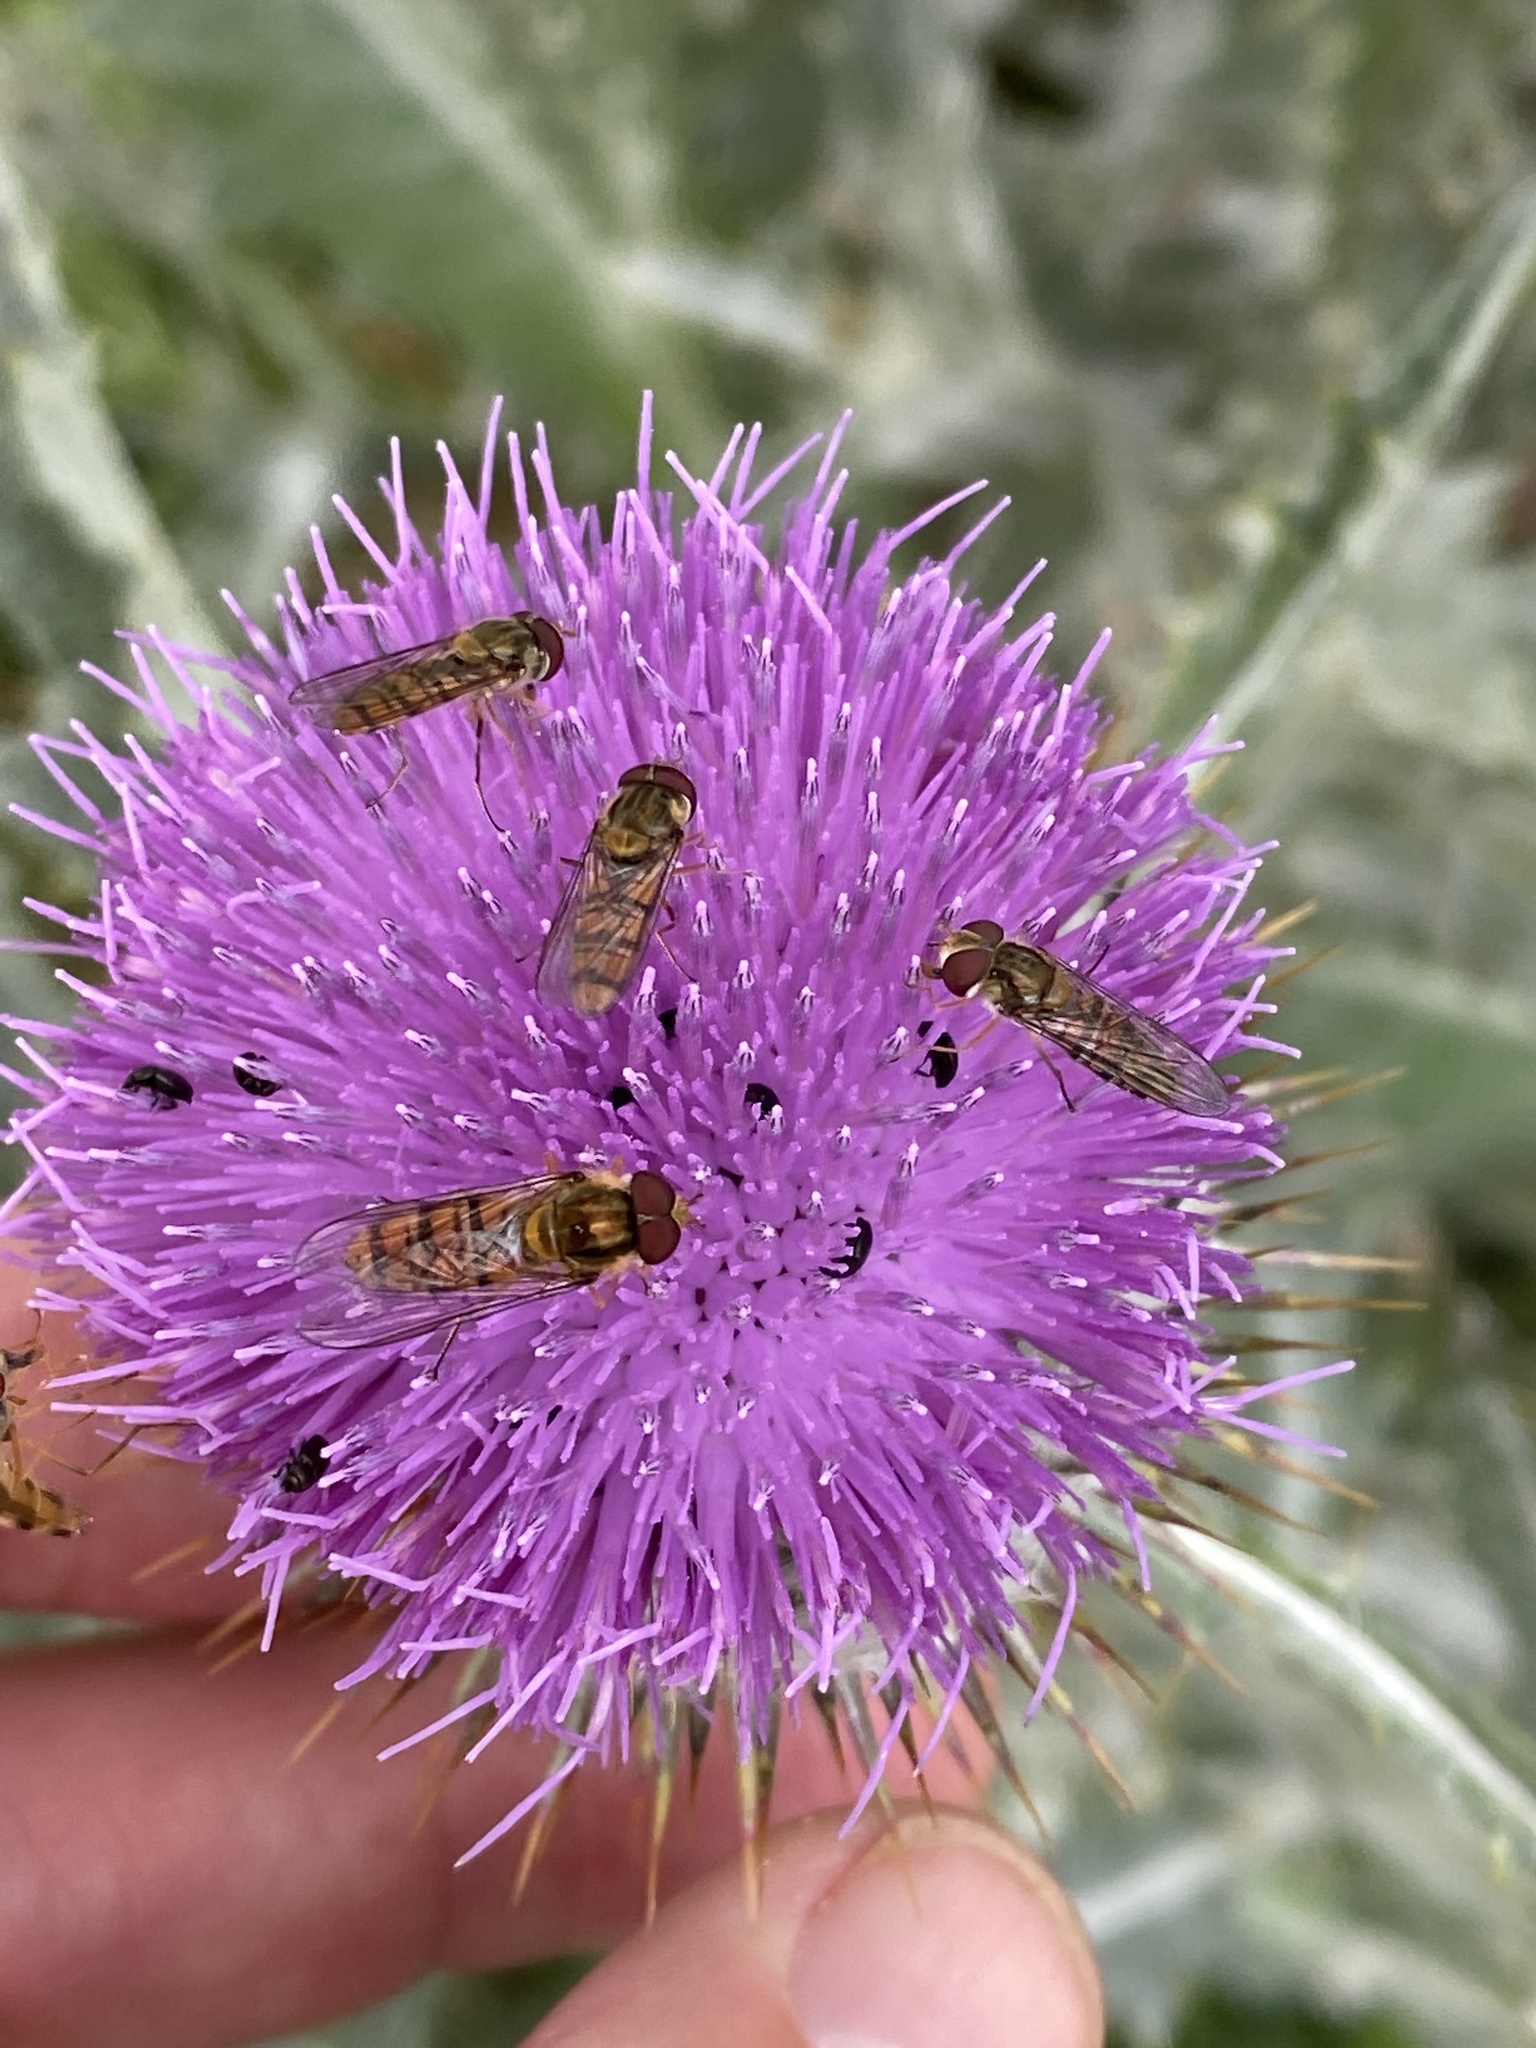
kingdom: Animalia
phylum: Arthropoda
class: Insecta
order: Diptera
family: Syrphidae
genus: Episyrphus
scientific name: Episyrphus balteatus
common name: Marmalade hoverfly
